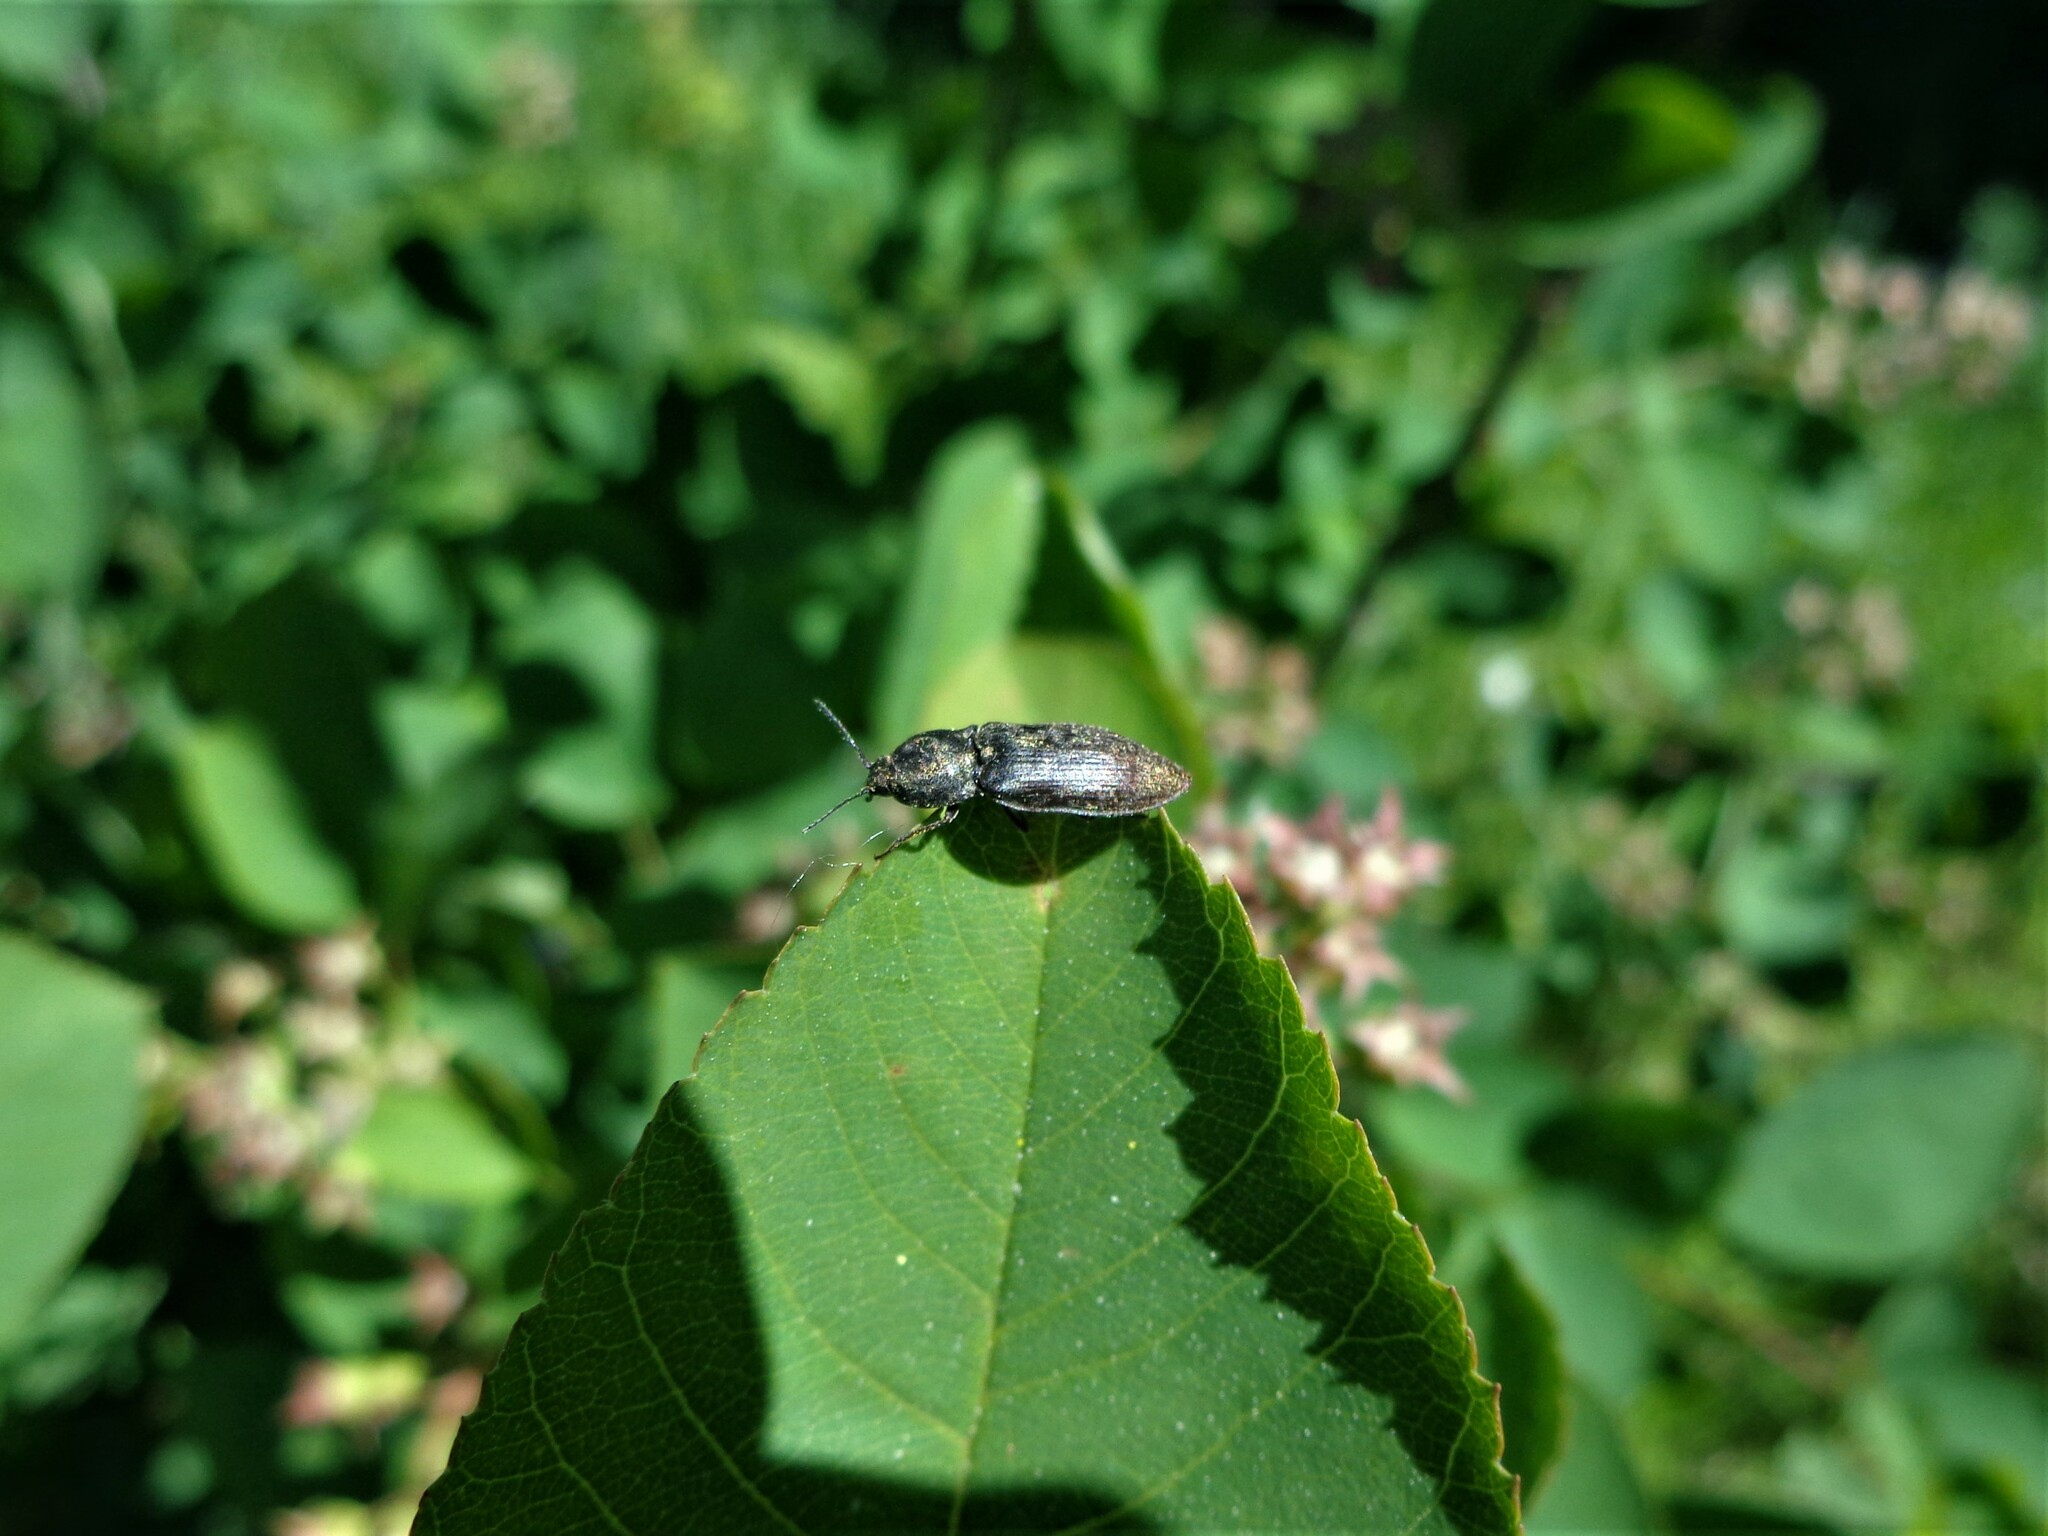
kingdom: Animalia
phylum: Arthropoda
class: Insecta
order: Coleoptera
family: Elateridae
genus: Prosternon
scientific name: Prosternon tessellatum
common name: Chequered click beetle
